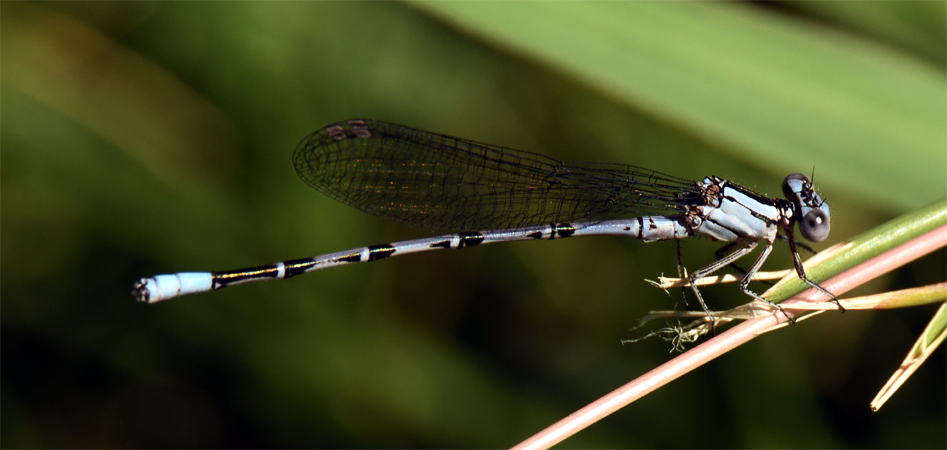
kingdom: Animalia
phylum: Arthropoda
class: Insecta
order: Odonata
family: Coenagrionidae
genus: Argia
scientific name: Argia vivida
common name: Vivid dancer
